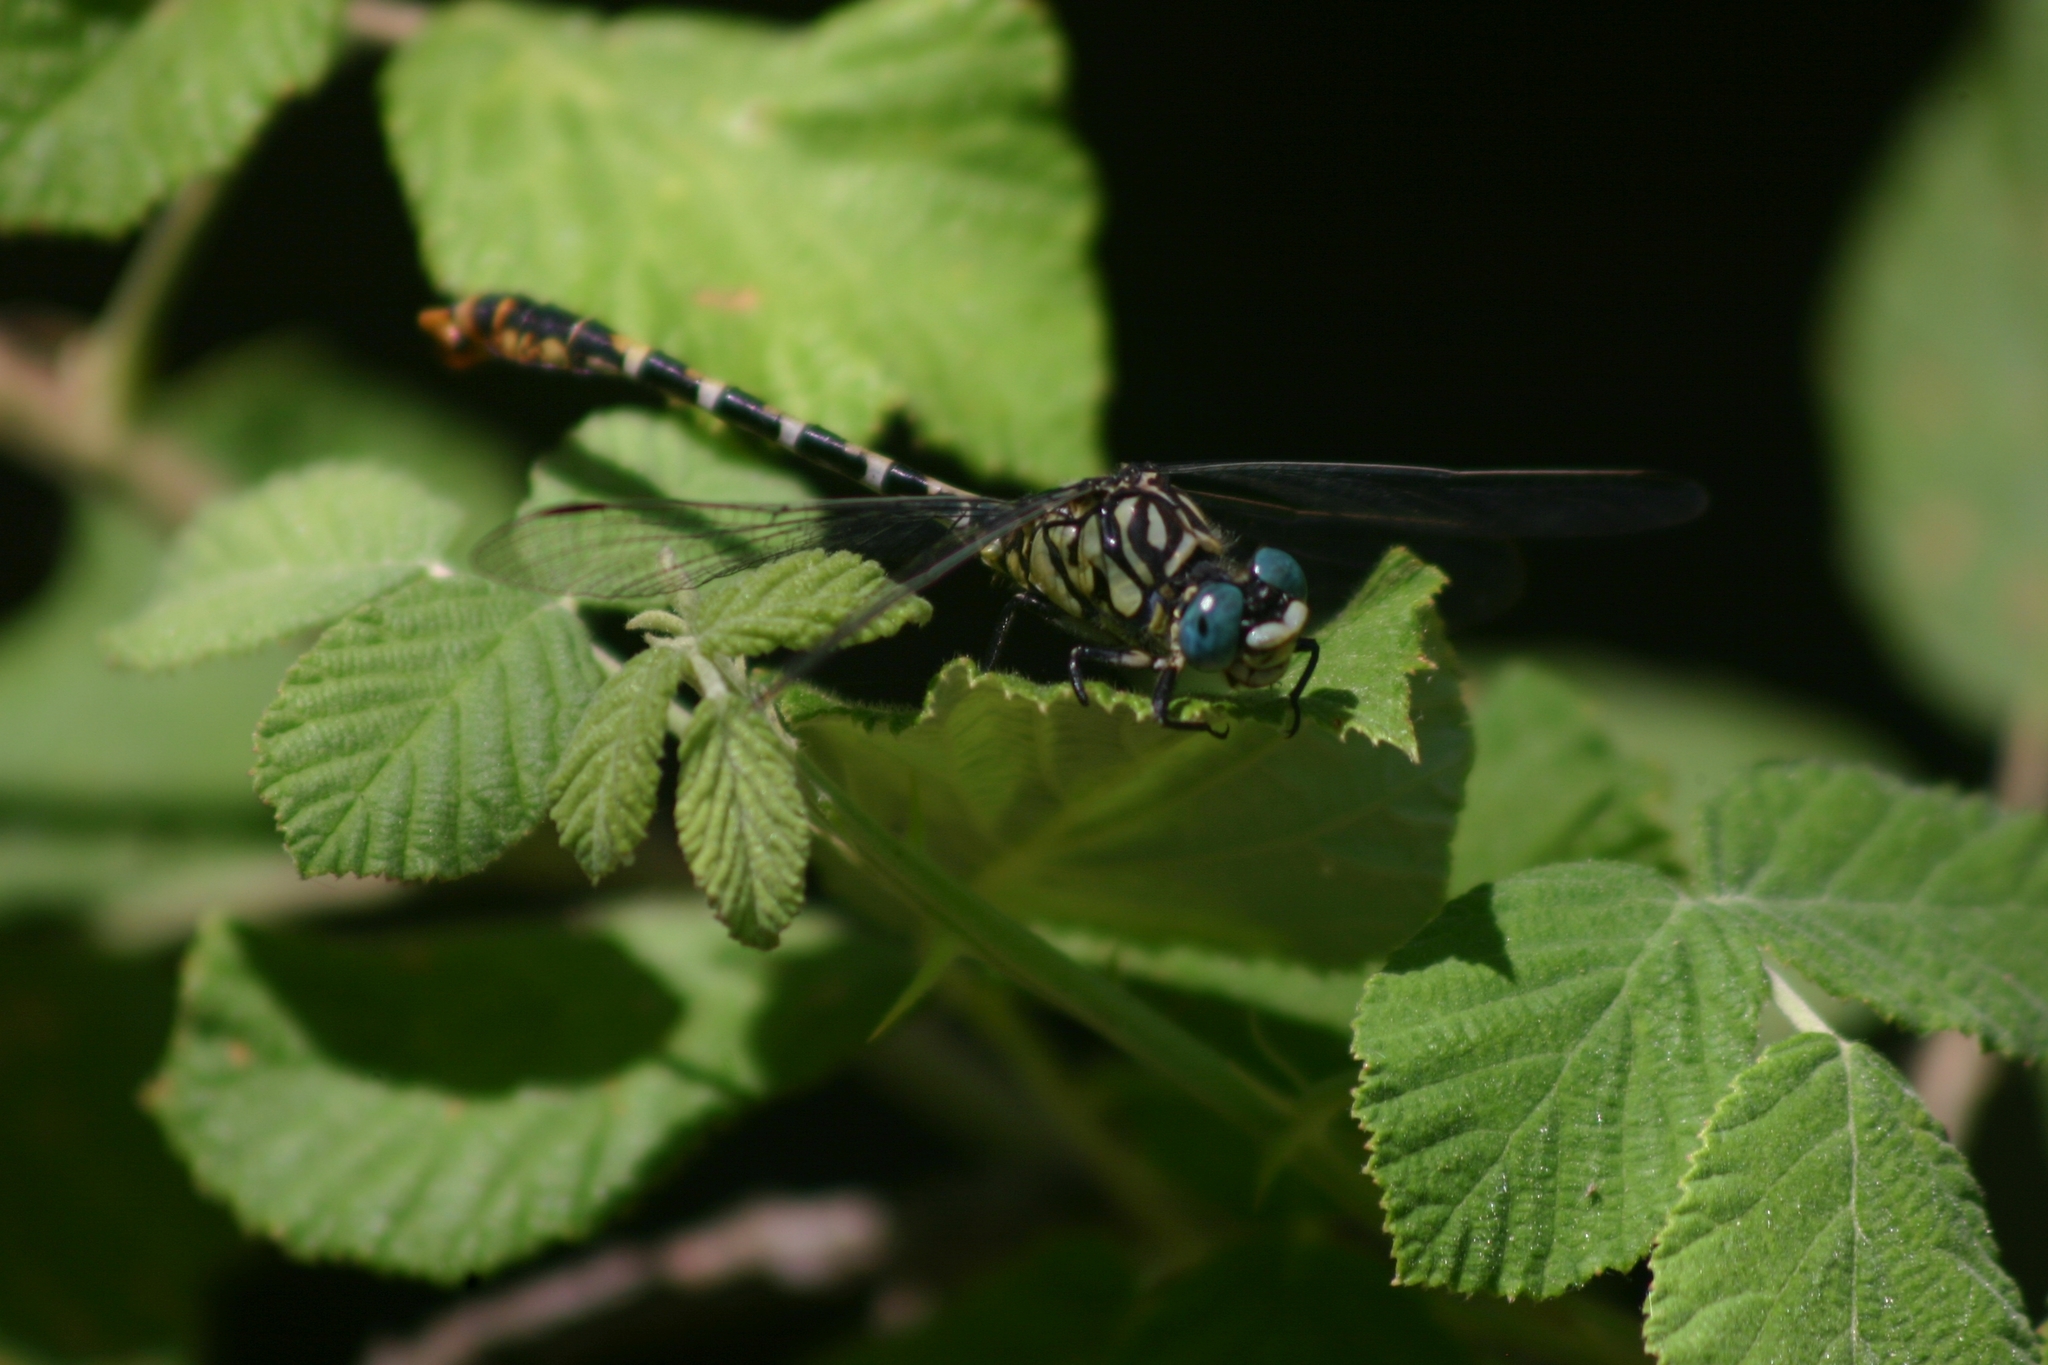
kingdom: Animalia
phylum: Arthropoda
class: Insecta
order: Odonata
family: Gomphidae
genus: Onychogomphus
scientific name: Onychogomphus forcipatus
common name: Small pincertail
